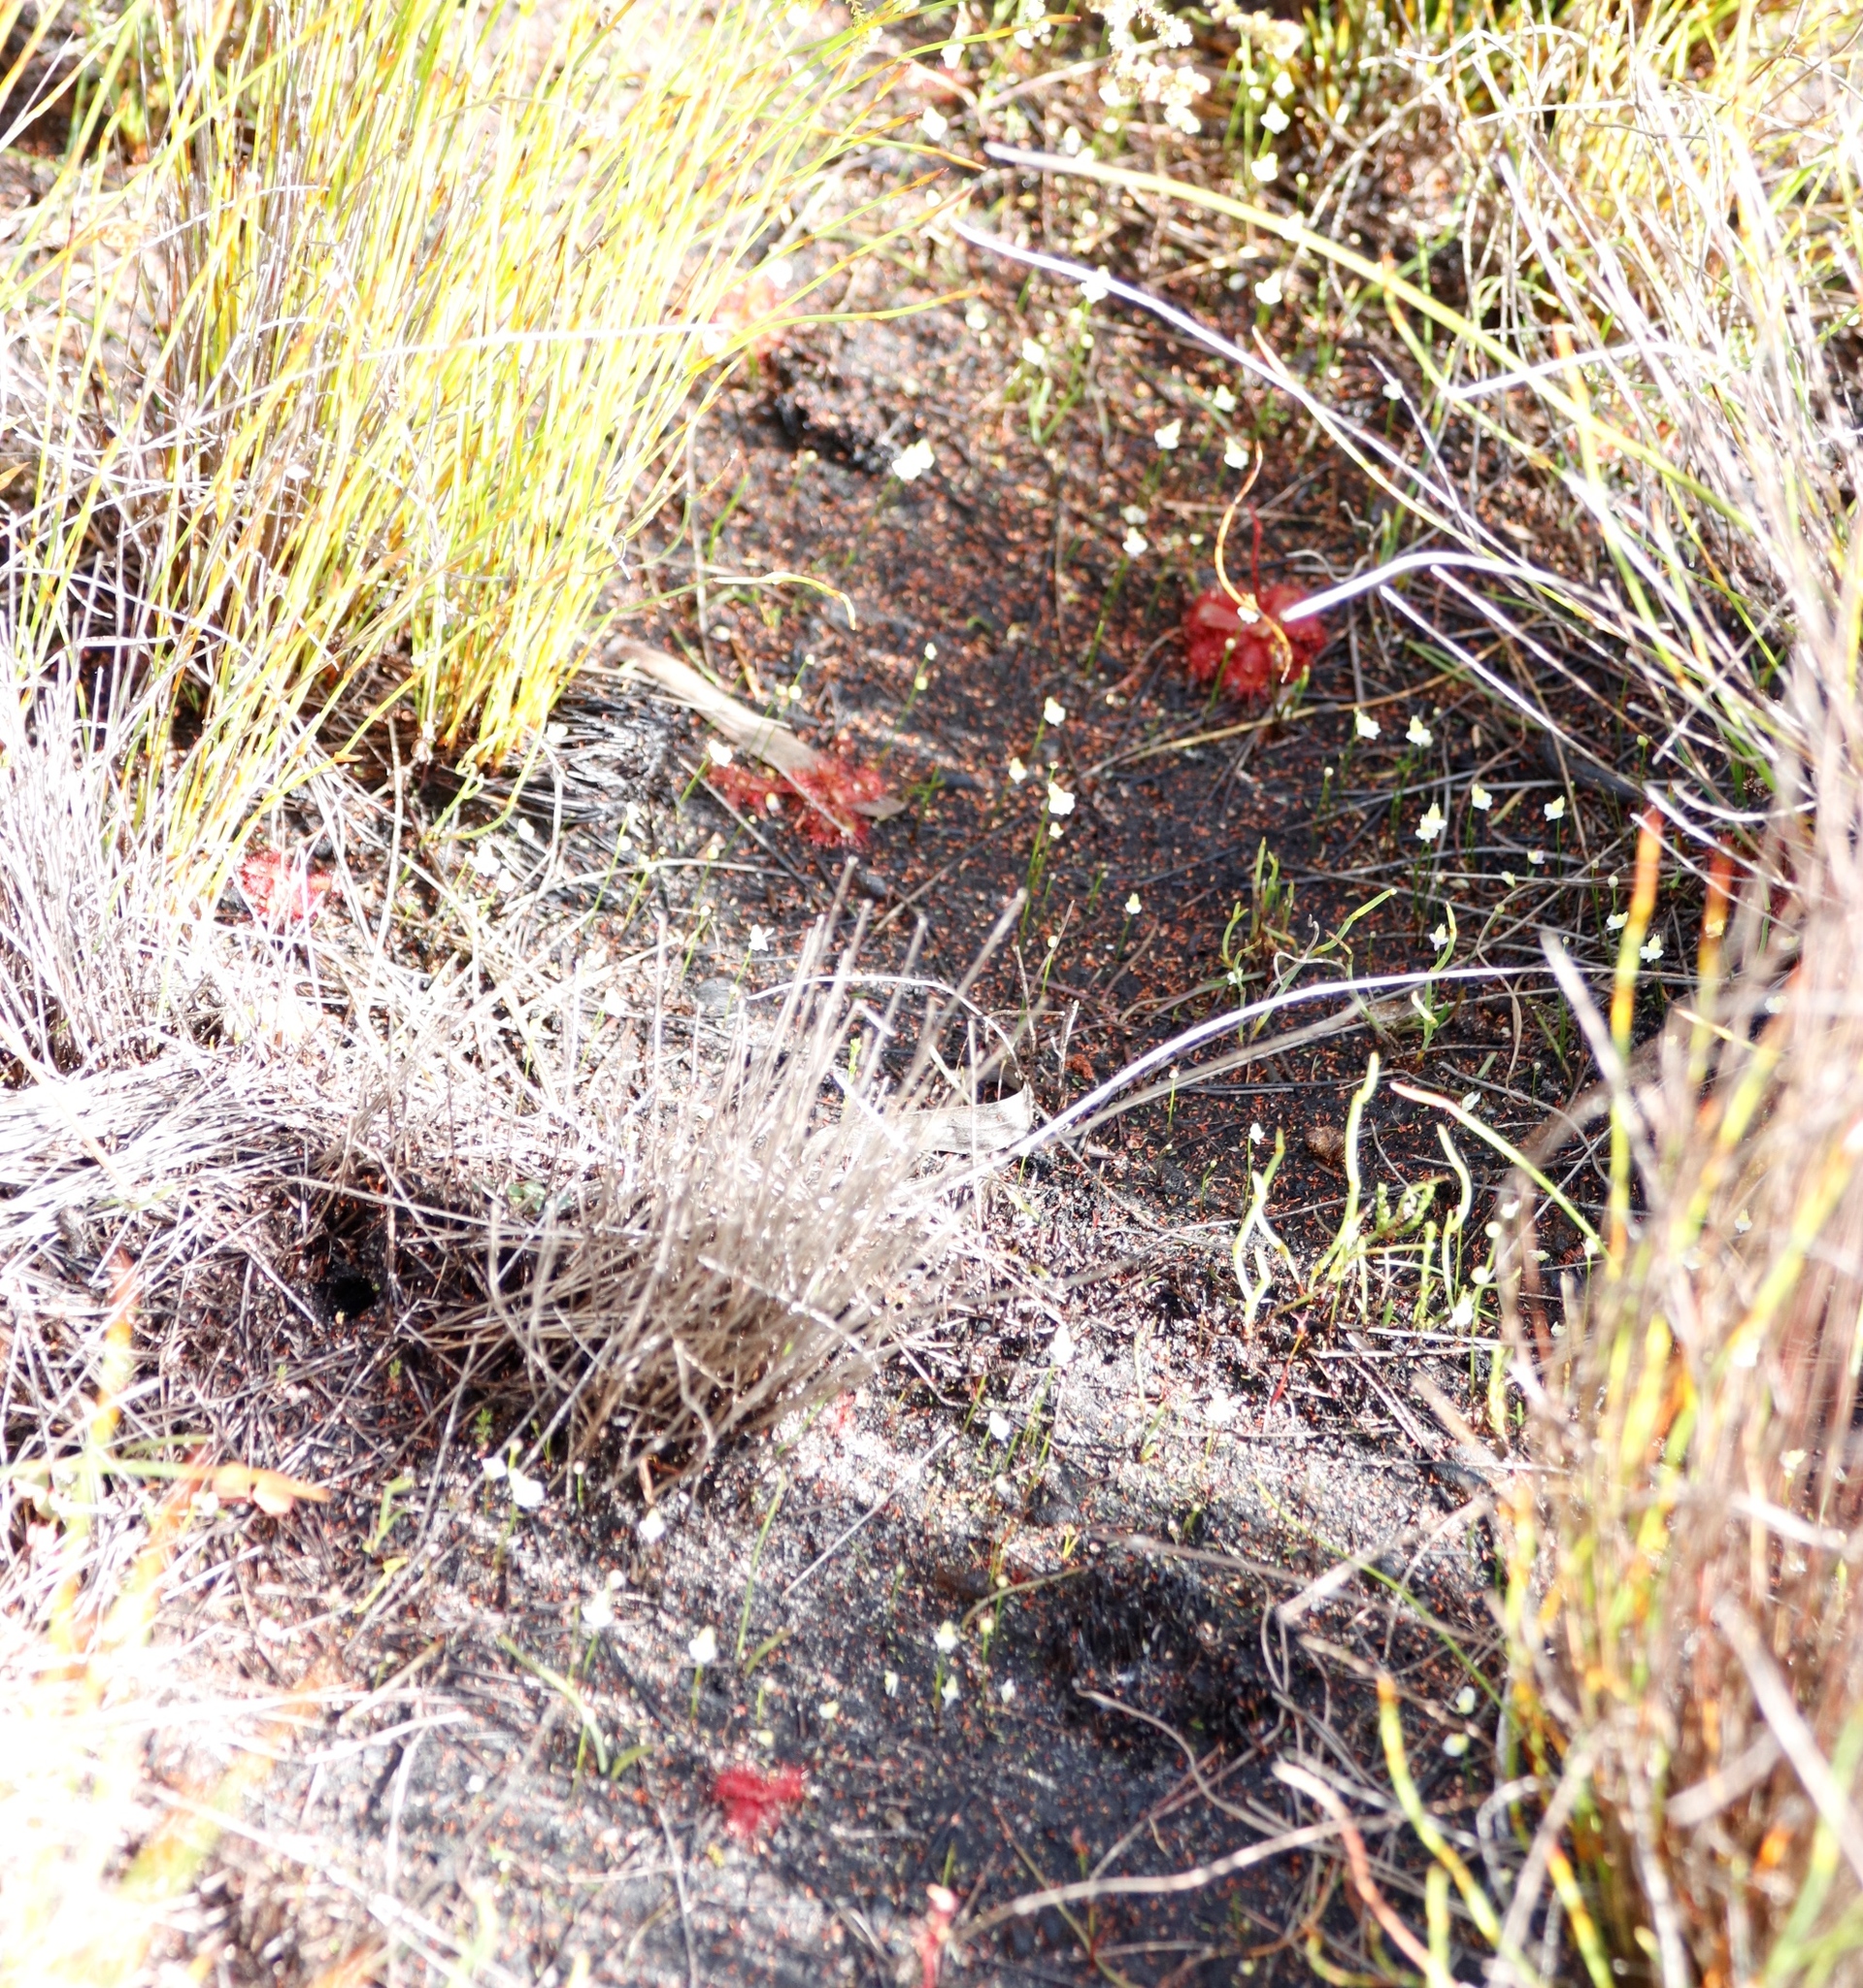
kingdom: Plantae
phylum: Tracheophyta
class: Magnoliopsida
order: Lamiales
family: Lentibulariaceae
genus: Utricularia
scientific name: Utricularia bisquamata
